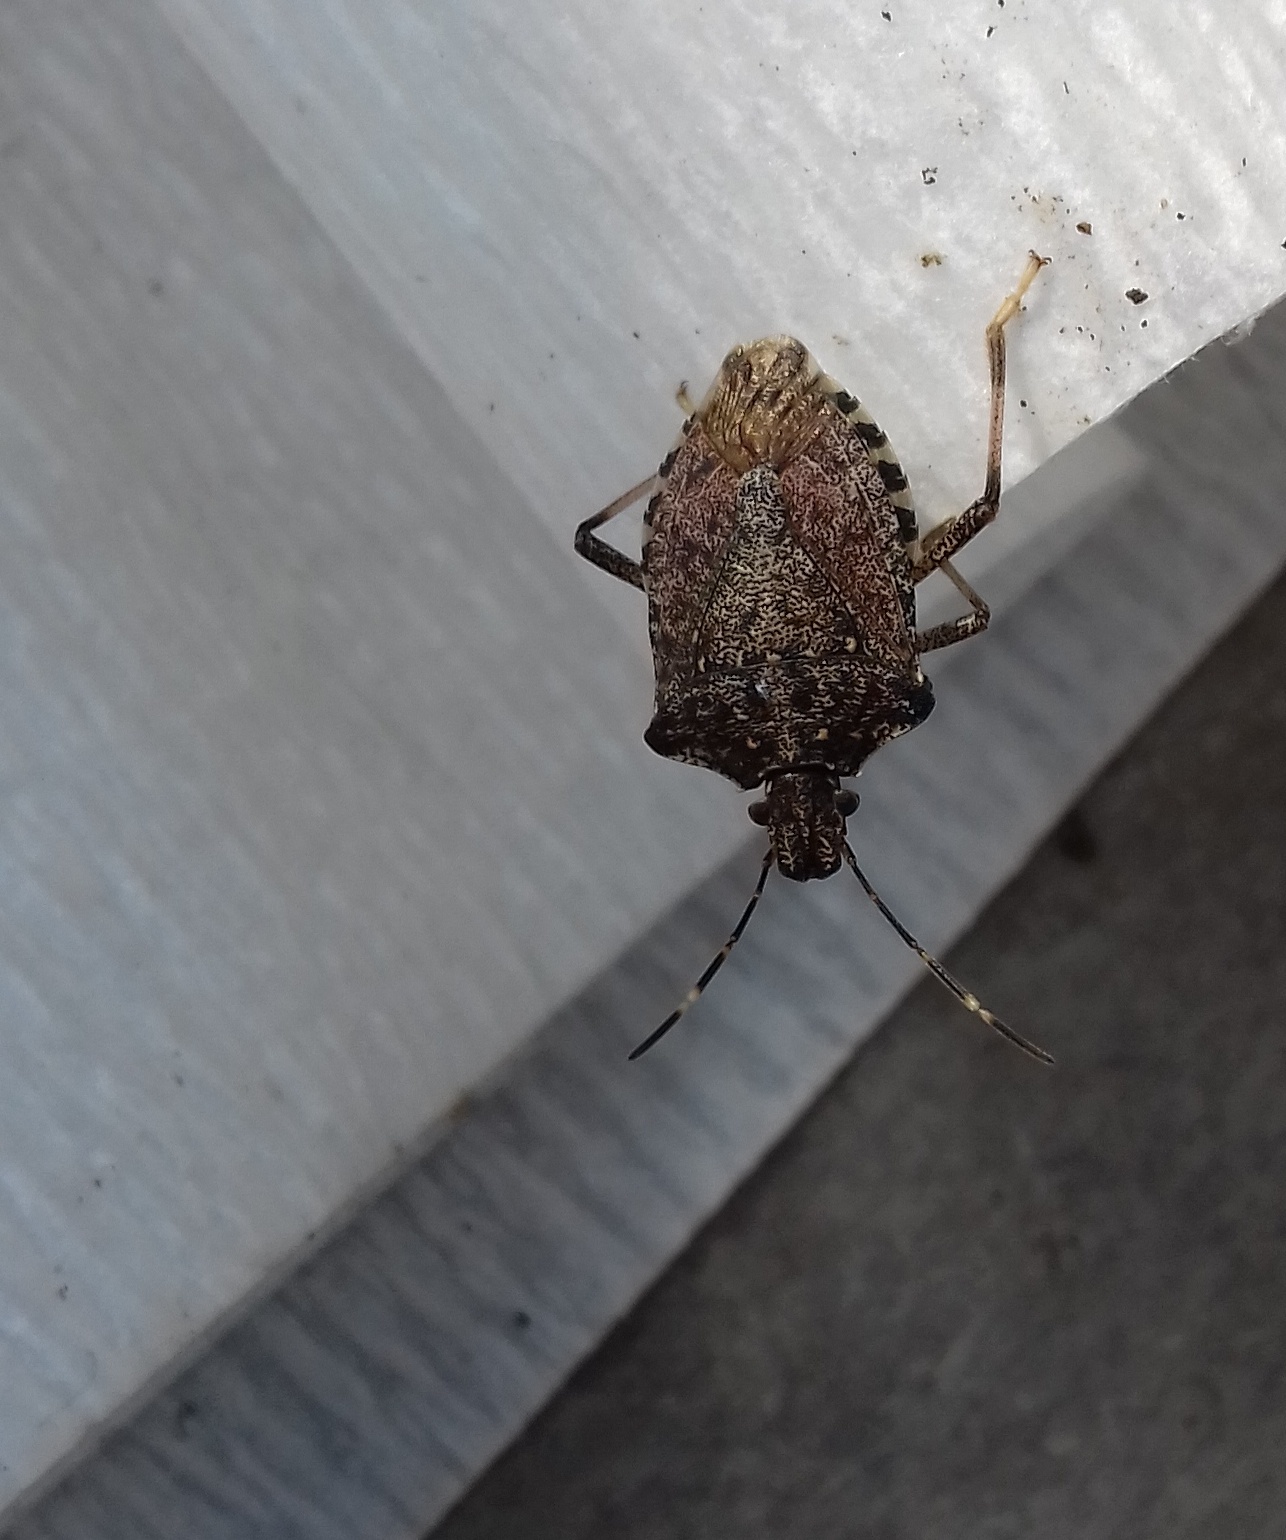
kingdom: Animalia
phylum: Arthropoda
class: Insecta
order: Hemiptera
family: Pentatomidae
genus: Halyomorpha
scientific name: Halyomorpha halys
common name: Brown marmorated stink bug
